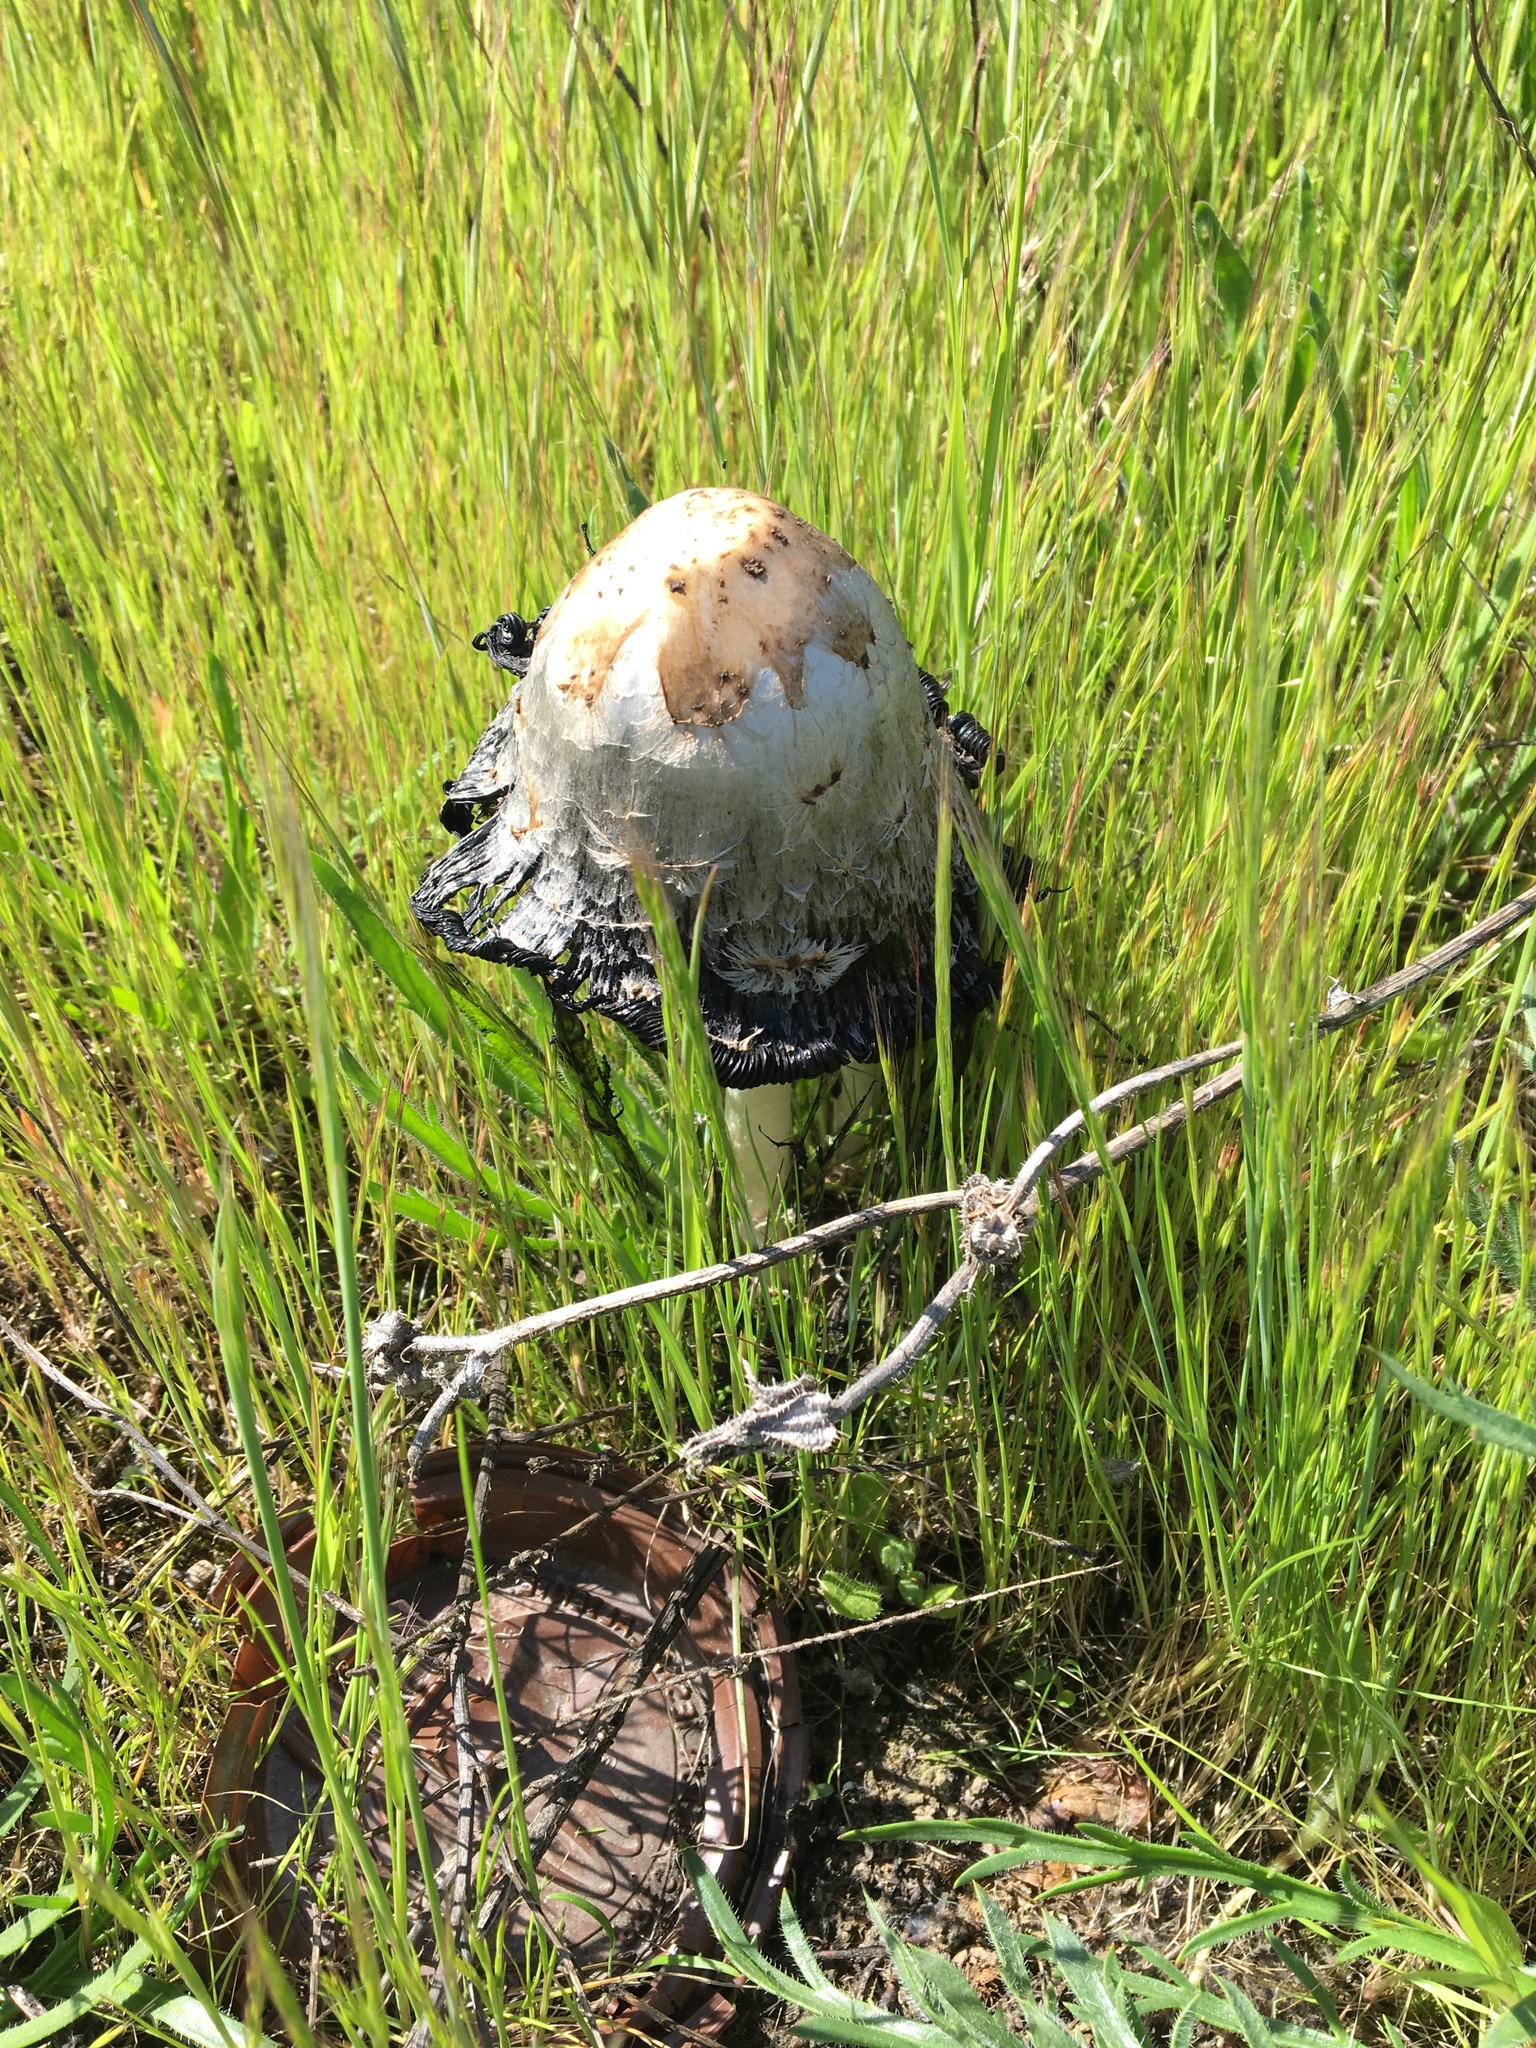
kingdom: Fungi
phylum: Basidiomycota
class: Agaricomycetes
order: Agaricales
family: Agaricaceae
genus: Coprinus
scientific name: Coprinus comatus
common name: Lawyer's wig
